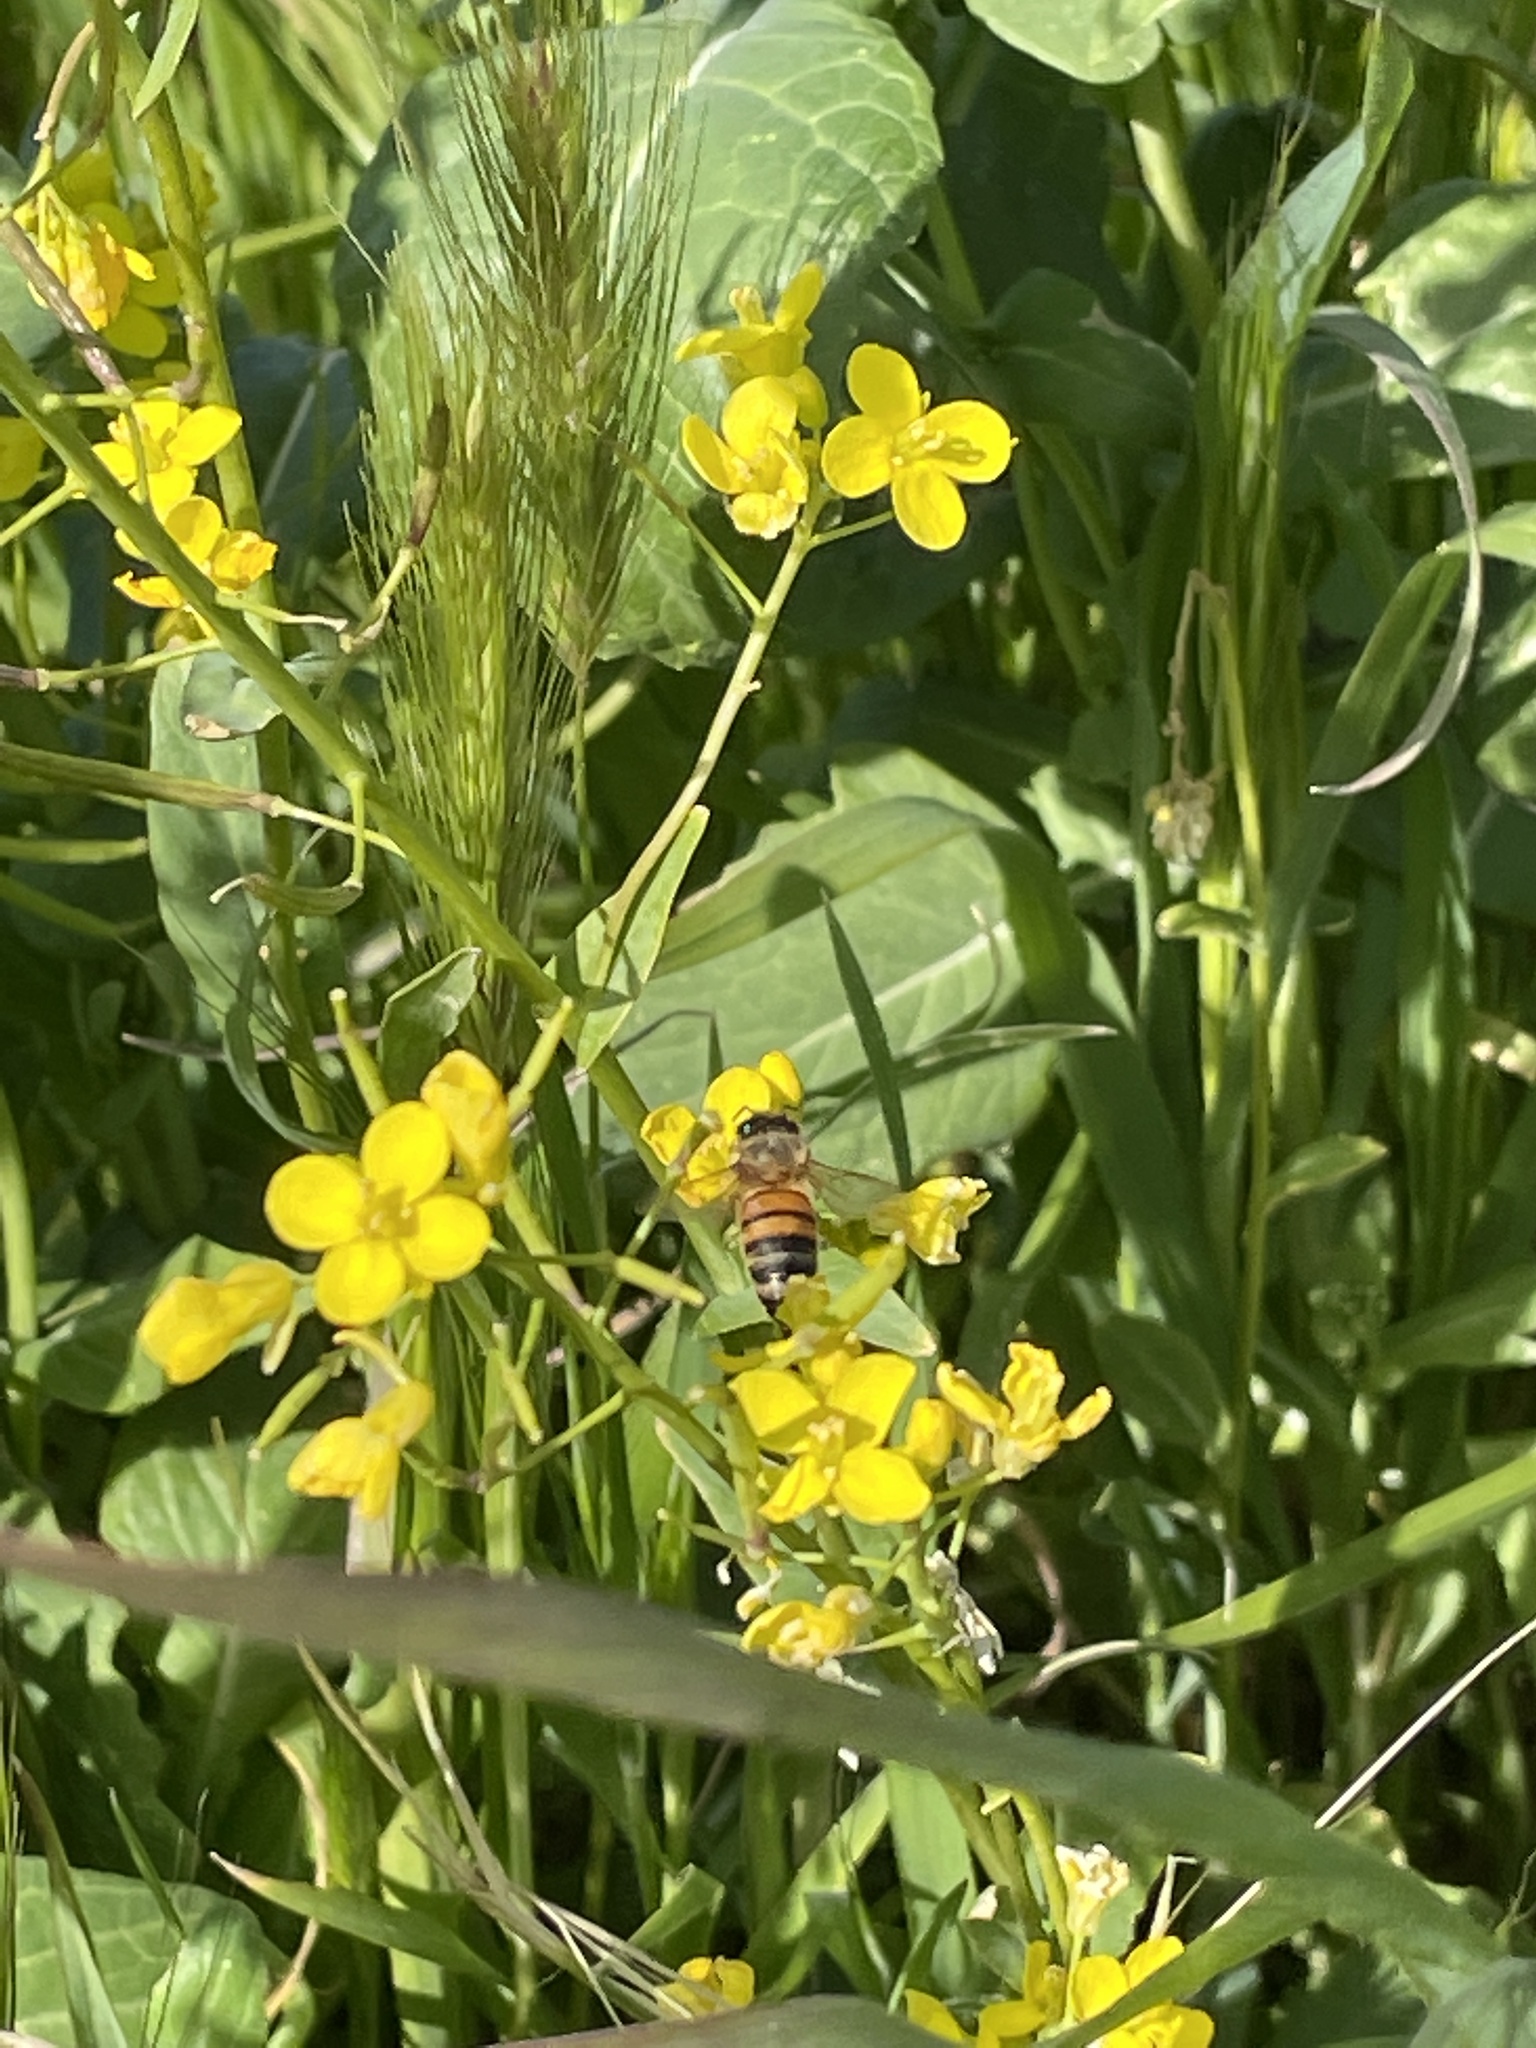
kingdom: Animalia
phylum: Arthropoda
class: Insecta
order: Hymenoptera
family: Apidae
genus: Apis
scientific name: Apis mellifera
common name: Honey bee
